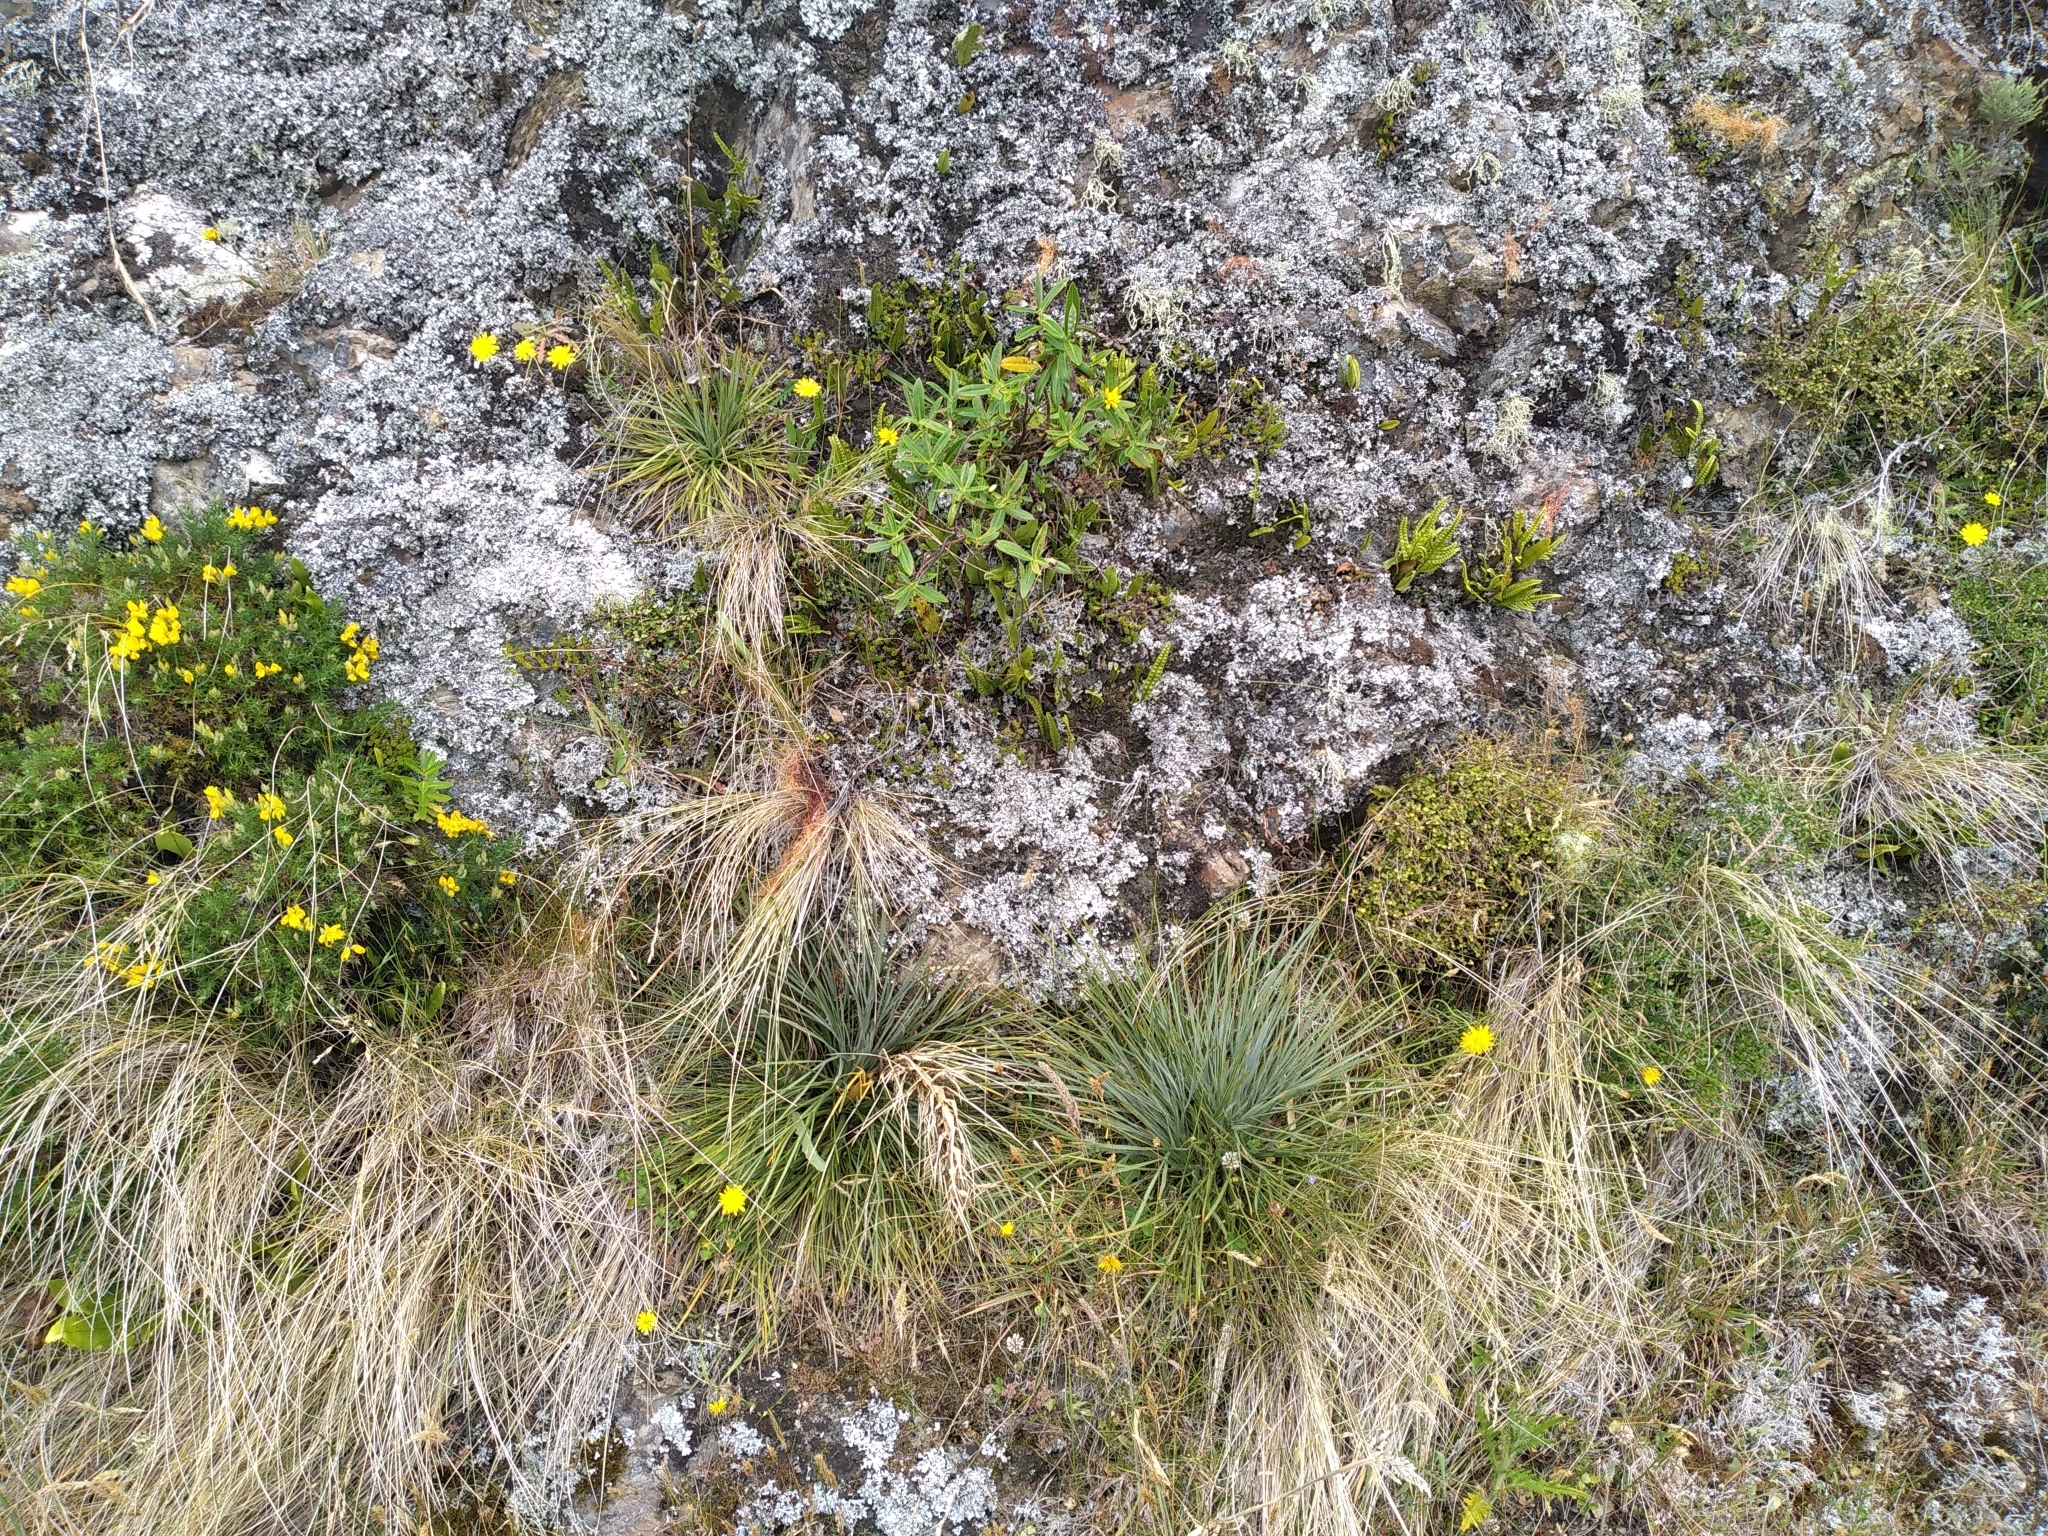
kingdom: Plantae
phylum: Tracheophyta
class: Magnoliopsida
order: Apiales
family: Apiaceae
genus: Aciphylla
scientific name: Aciphylla squarrosa
